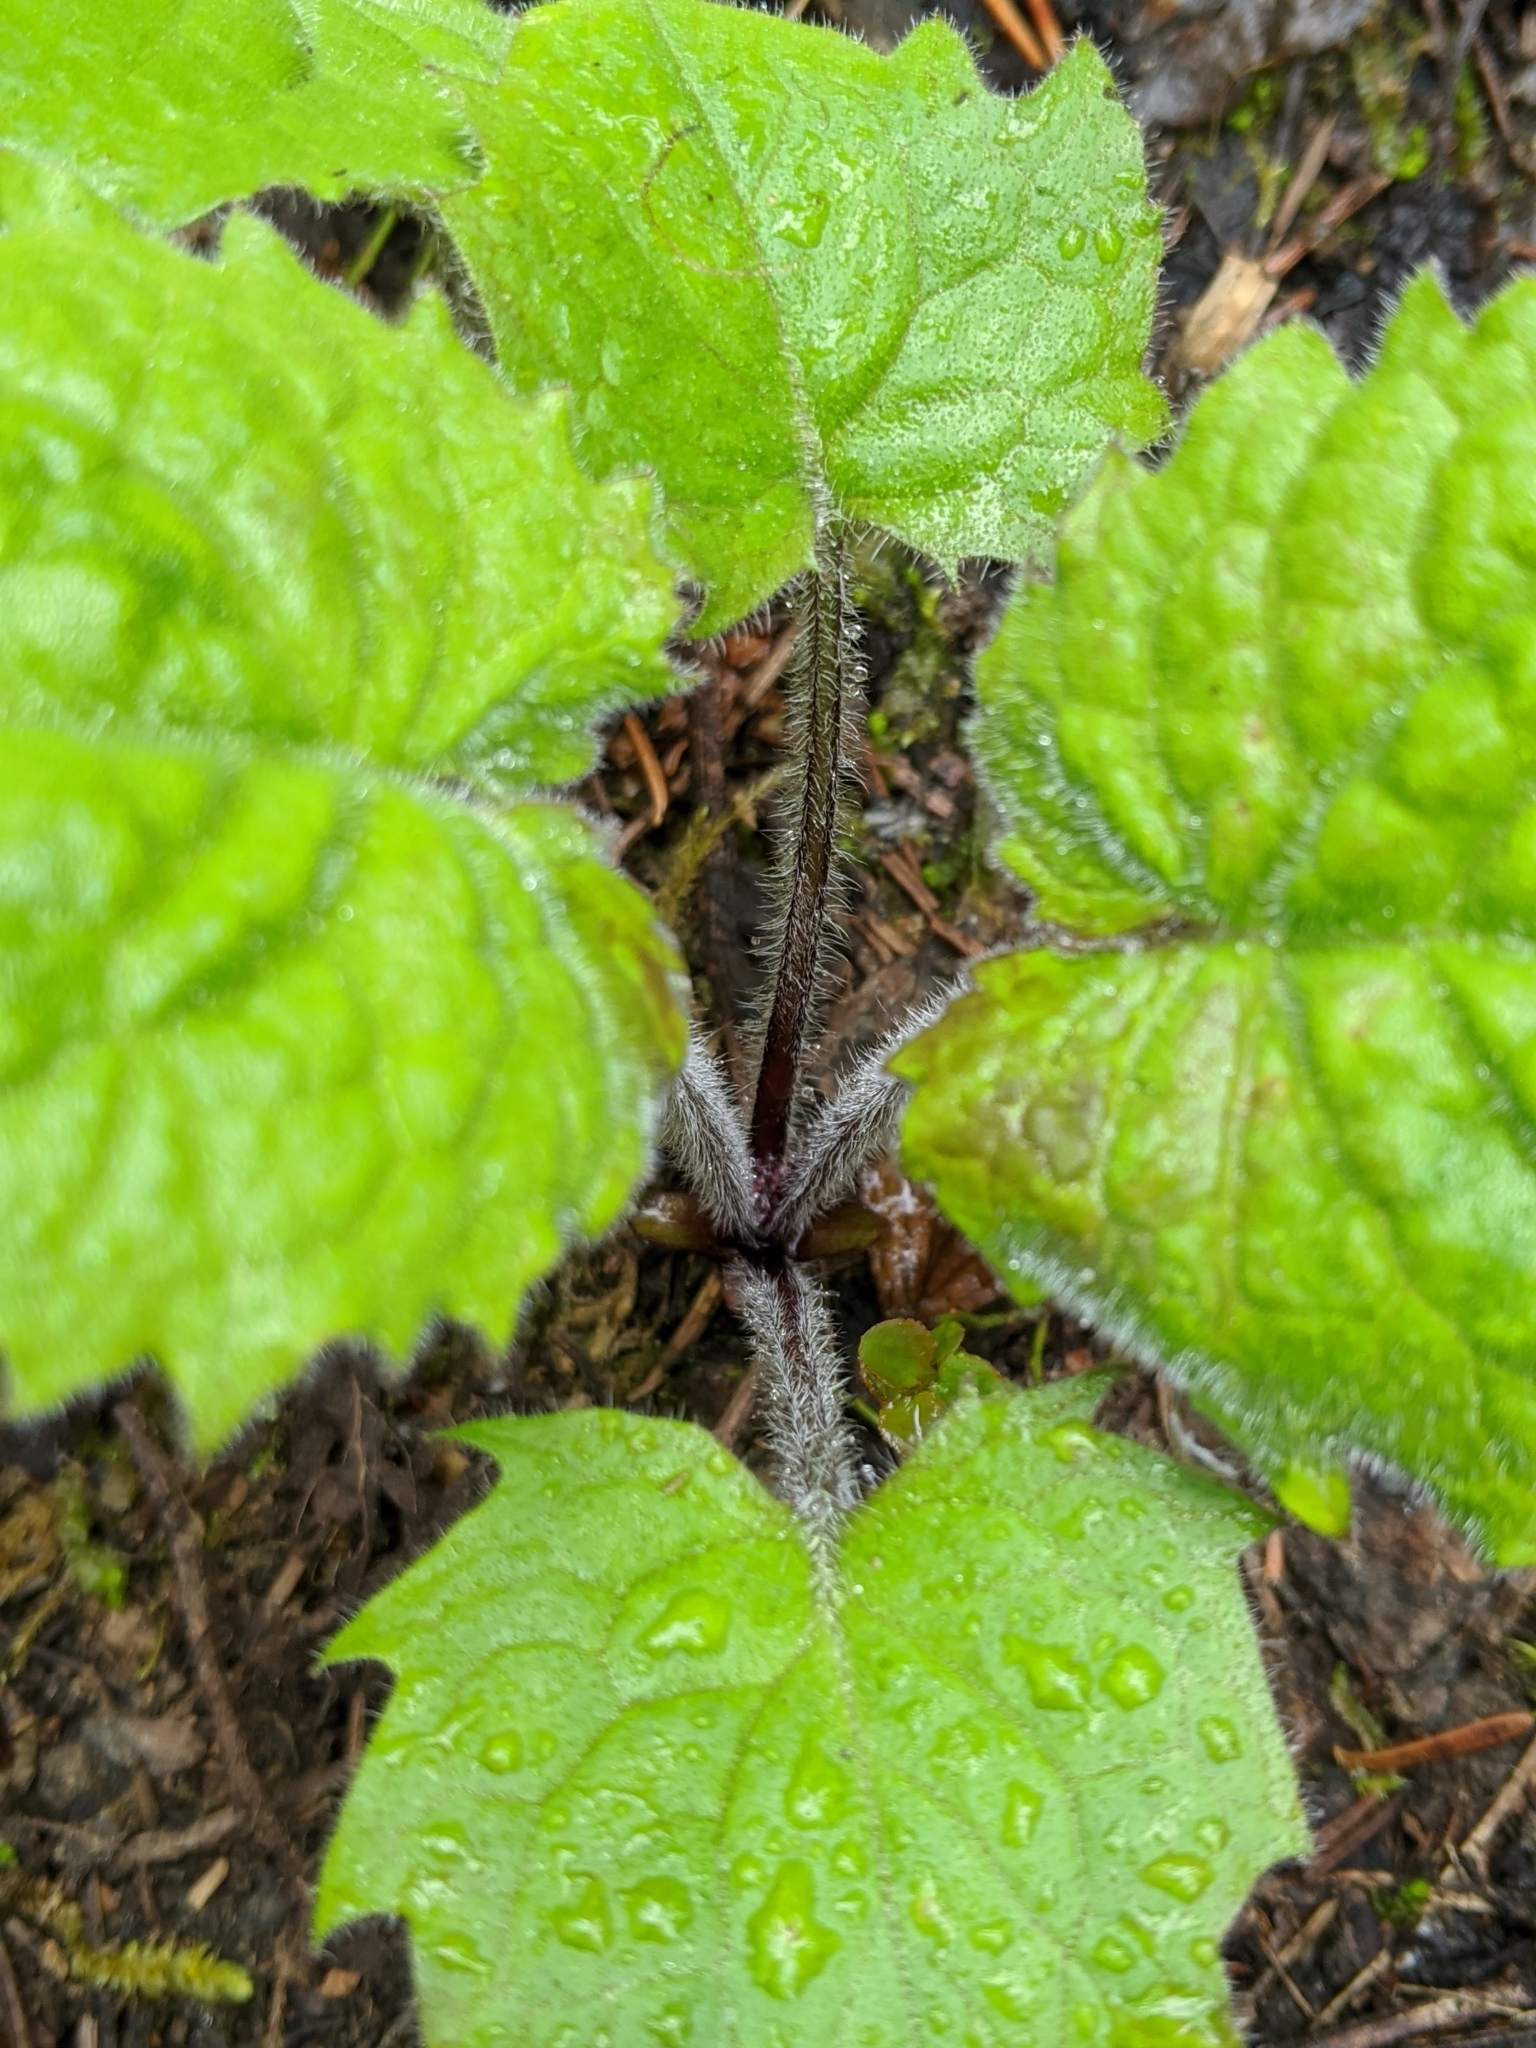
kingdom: Plantae
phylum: Tracheophyta
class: Magnoliopsida
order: Asterales
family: Asteraceae
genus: Arnica
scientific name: Arnica cordifolia
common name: Heart-leaf arnica
